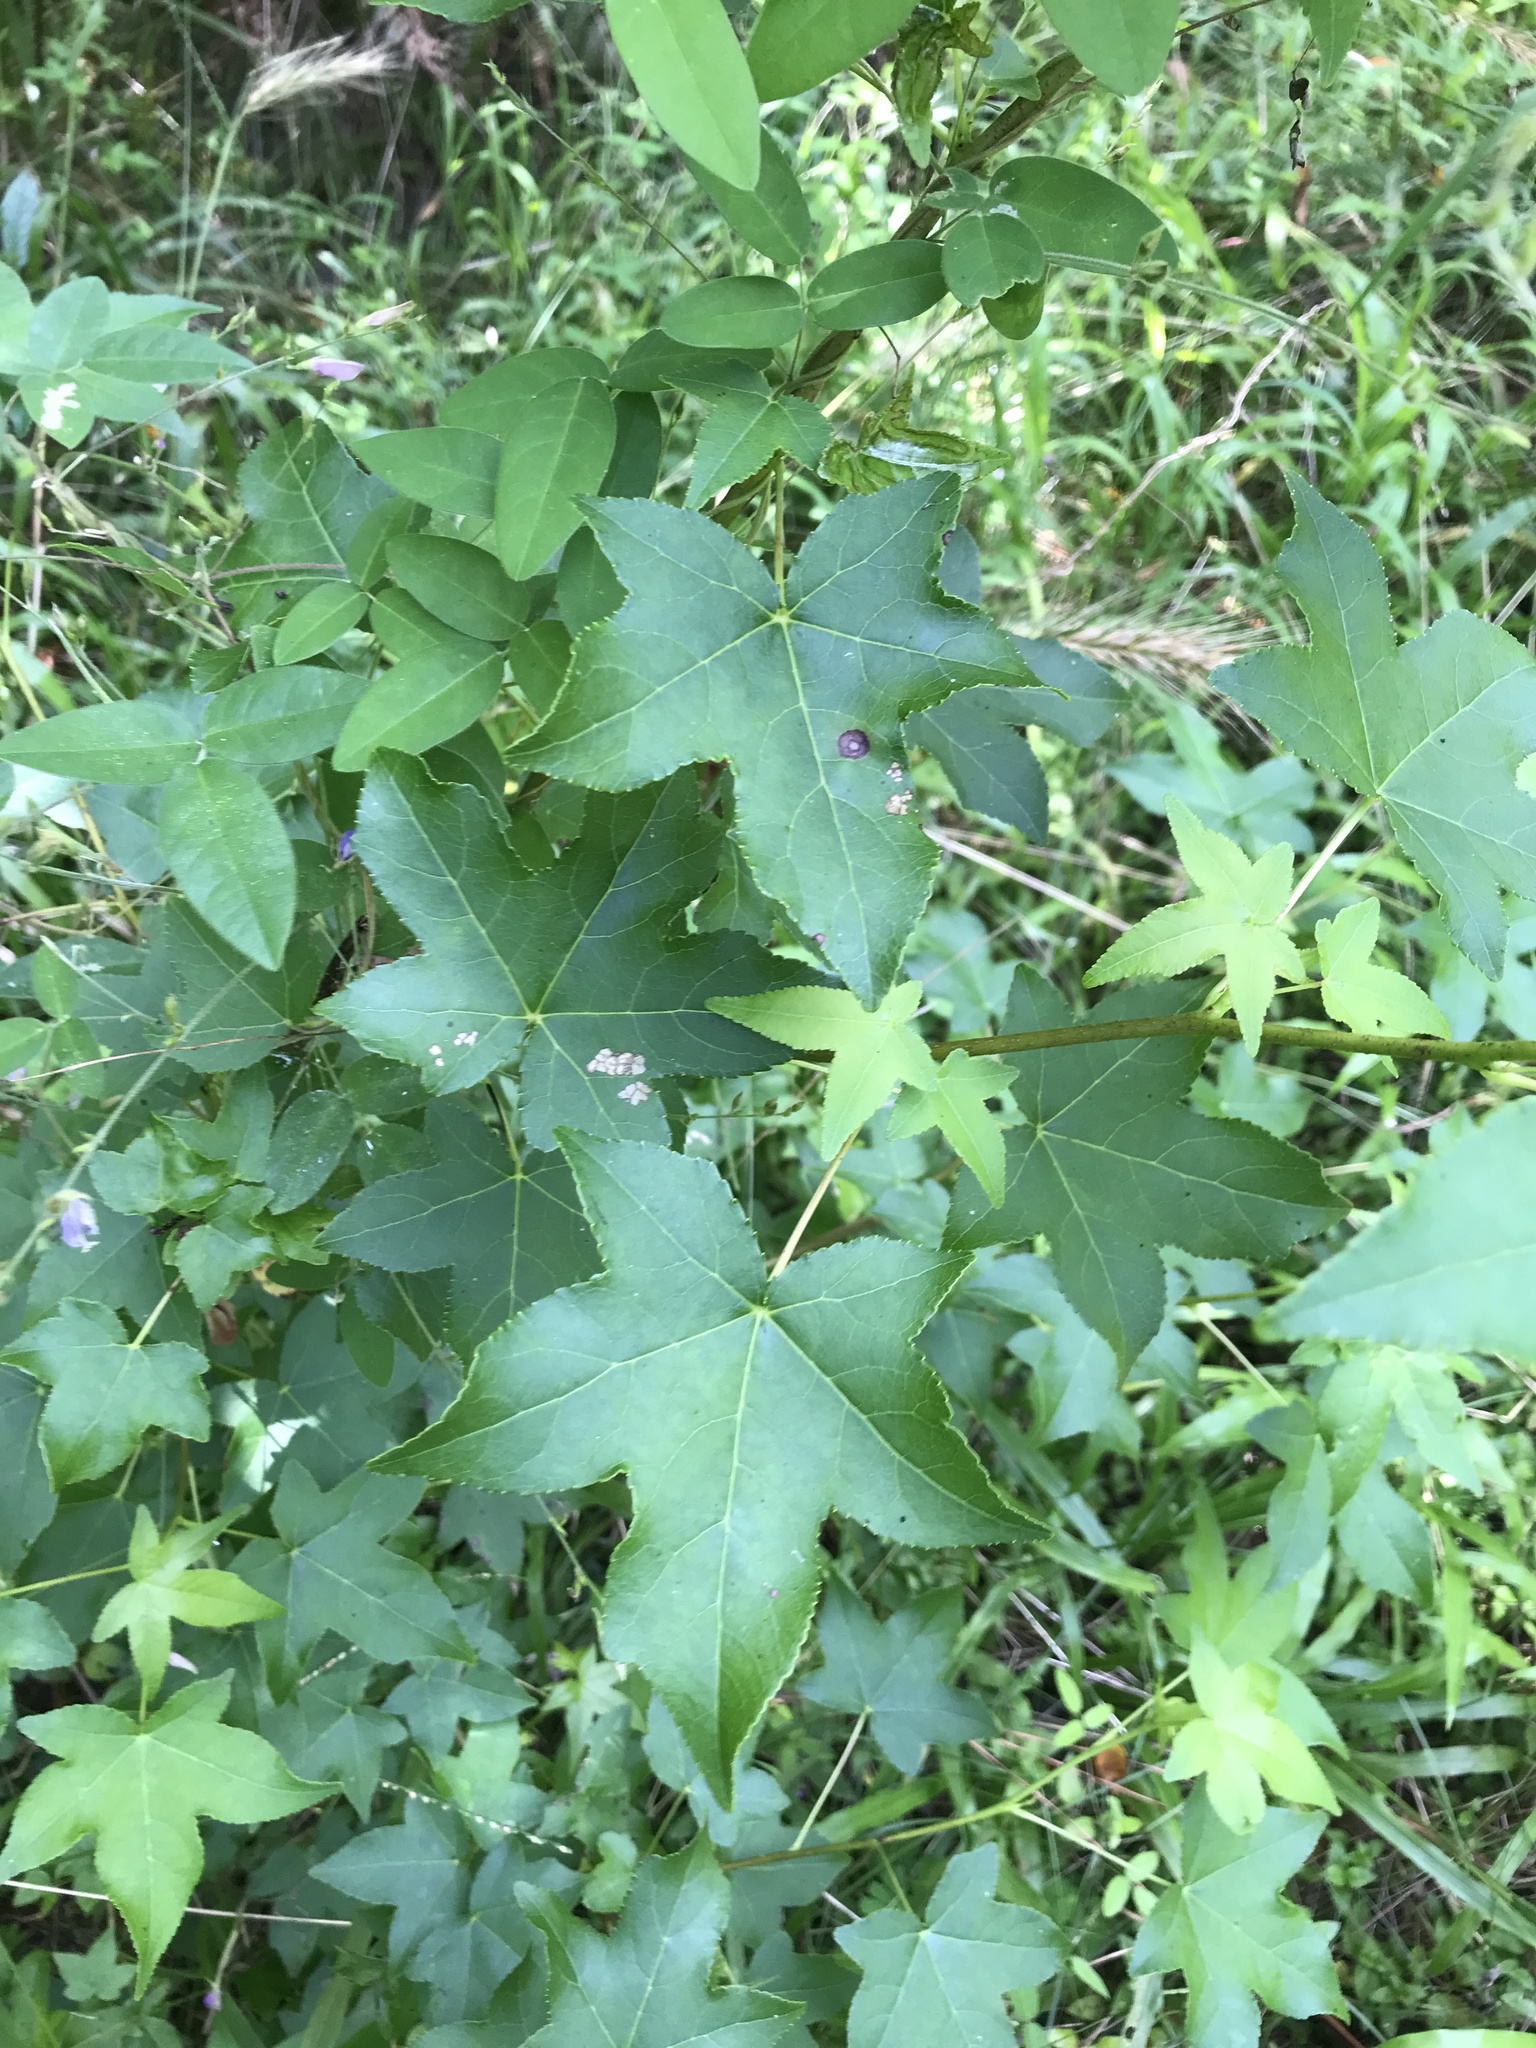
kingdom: Plantae
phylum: Tracheophyta
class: Magnoliopsida
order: Saxifragales
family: Altingiaceae
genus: Liquidambar
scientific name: Liquidambar styraciflua
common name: Sweet gum
